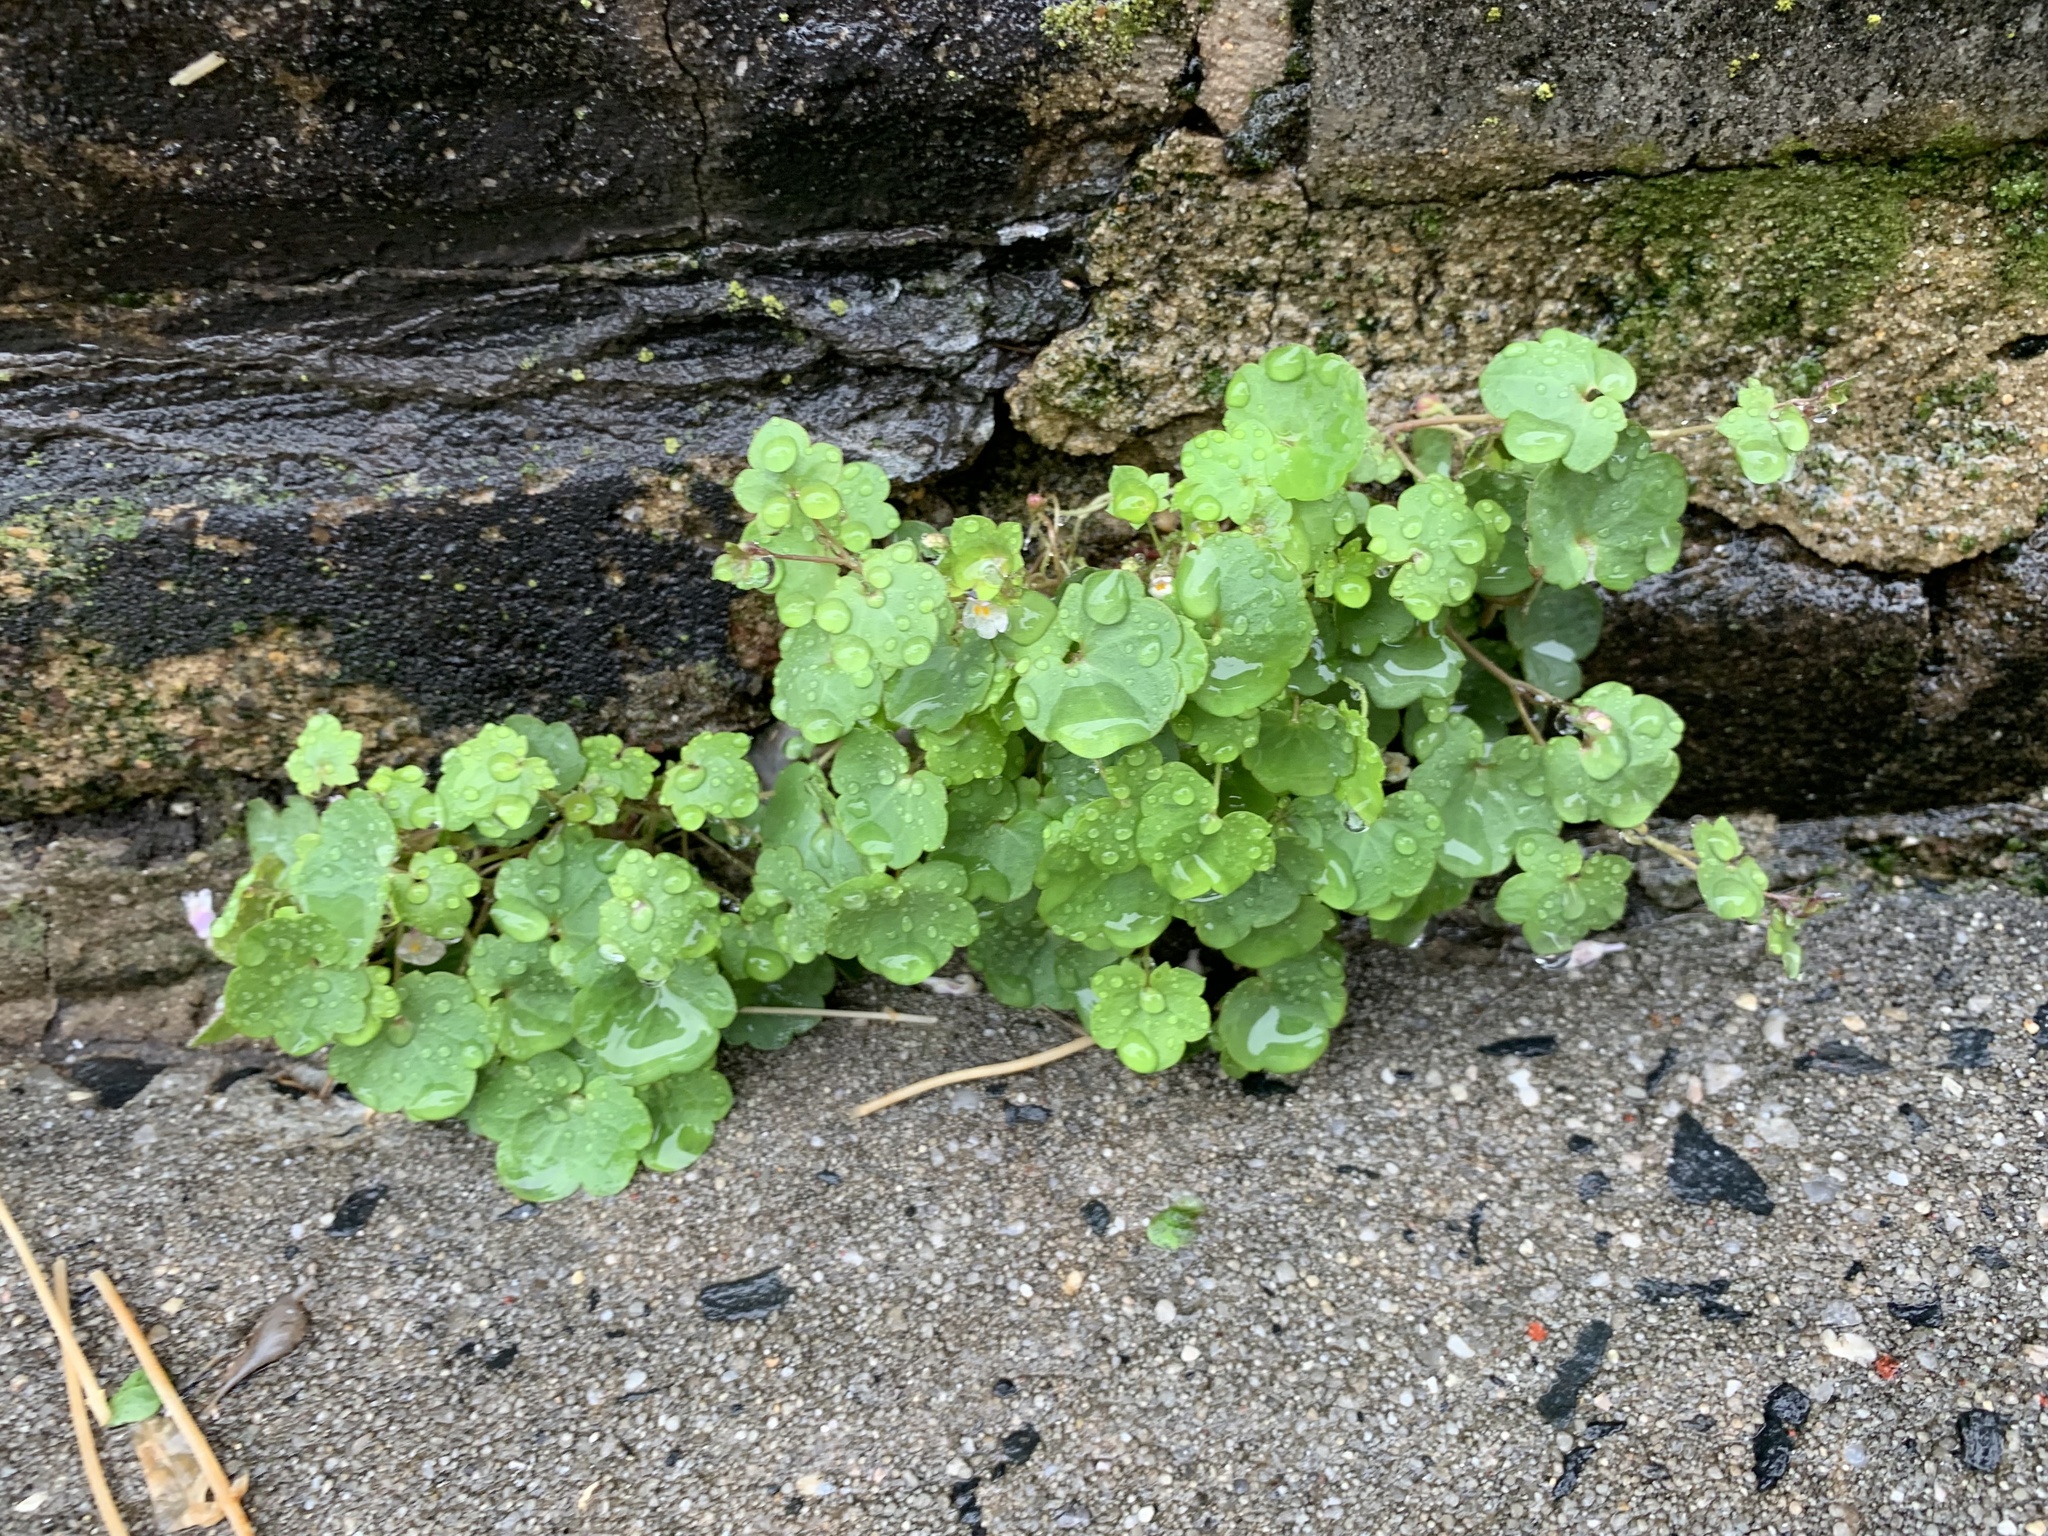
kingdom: Plantae
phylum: Tracheophyta
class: Magnoliopsida
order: Lamiales
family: Plantaginaceae
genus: Cymbalaria
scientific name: Cymbalaria muralis
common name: Ivy-leaved toadflax
